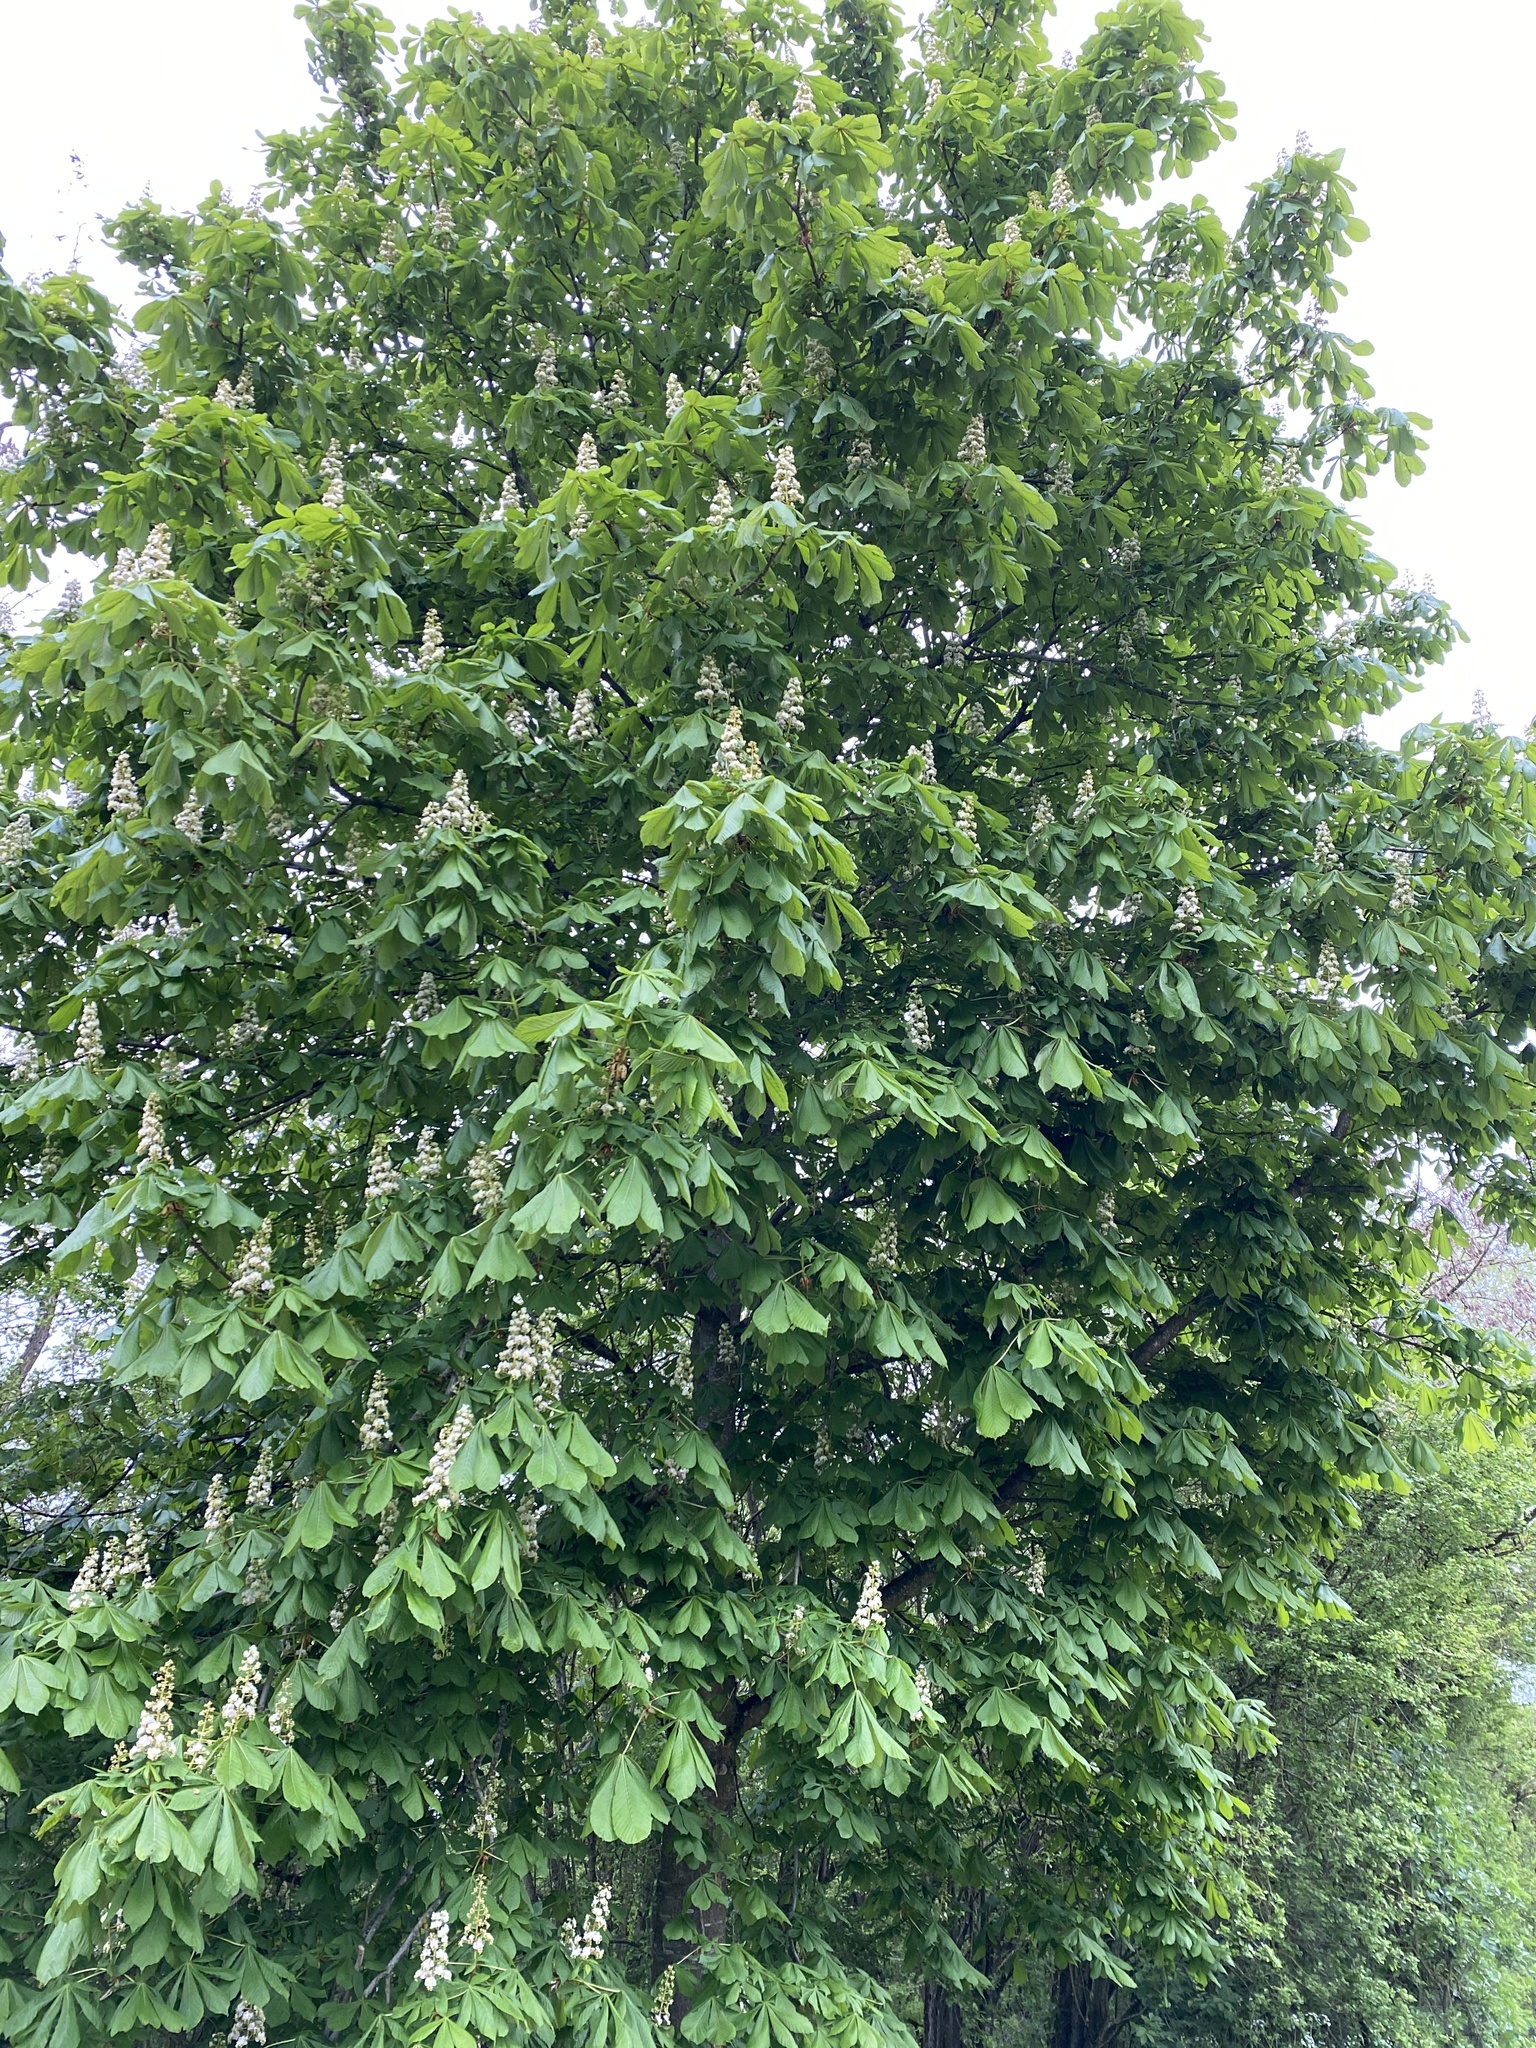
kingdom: Plantae
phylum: Tracheophyta
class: Magnoliopsida
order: Sapindales
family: Sapindaceae
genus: Aesculus
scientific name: Aesculus hippocastanum
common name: Horse-chestnut
